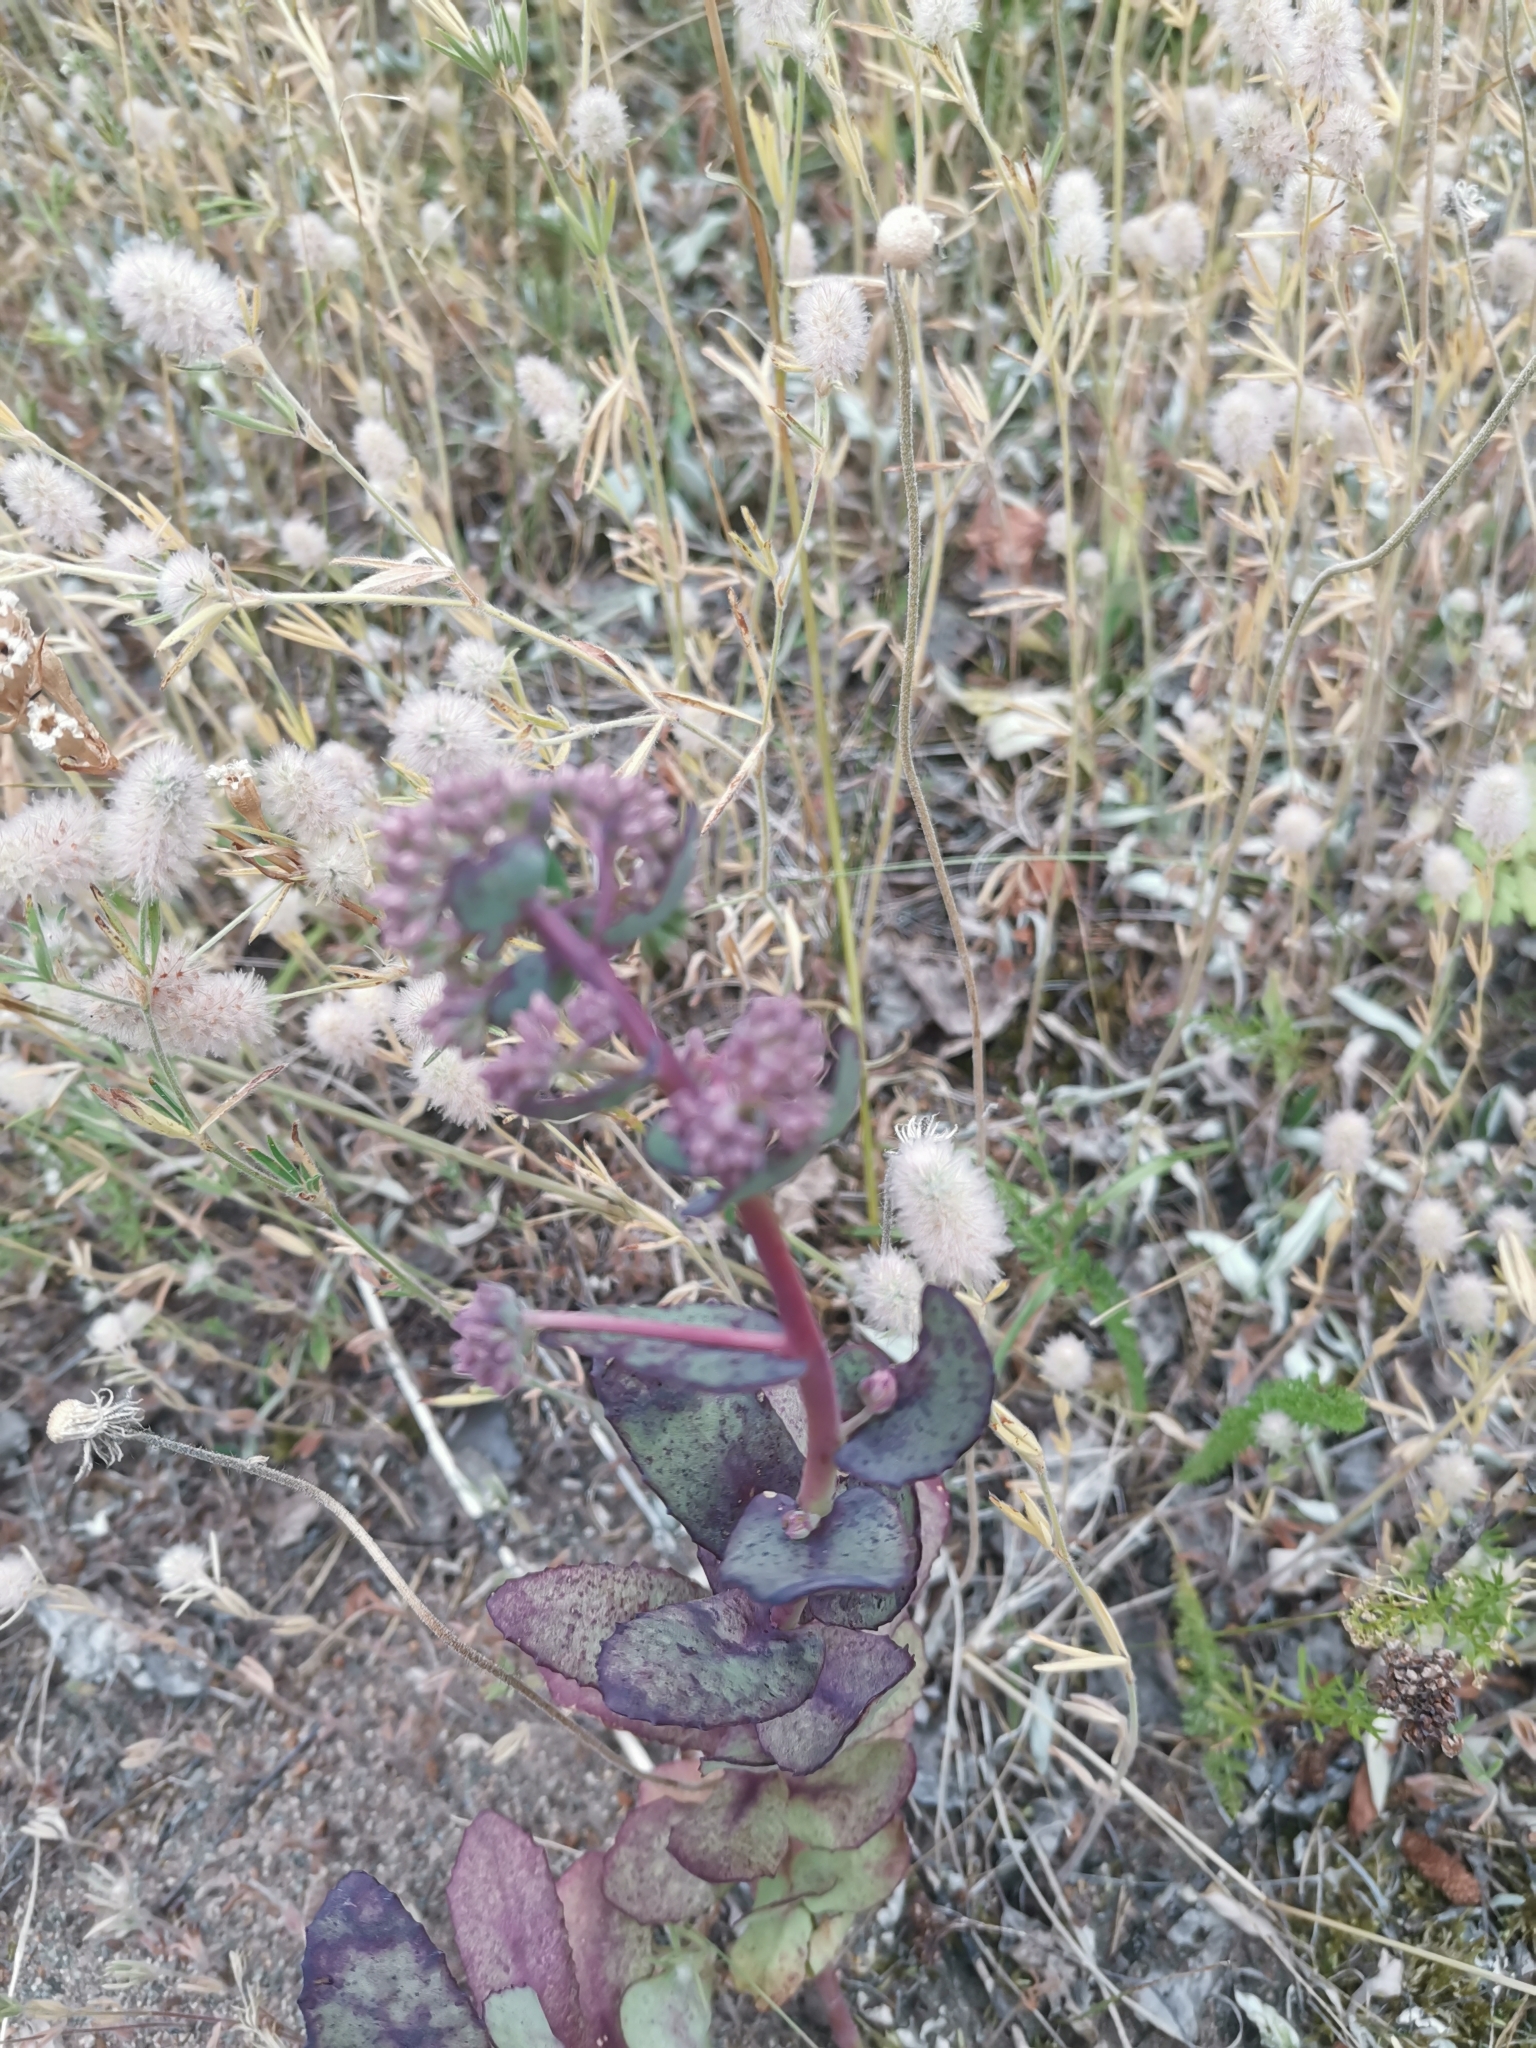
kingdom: Plantae
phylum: Tracheophyta
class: Magnoliopsida
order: Saxifragales
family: Crassulaceae
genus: Hylotelephium
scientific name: Hylotelephium maximum
